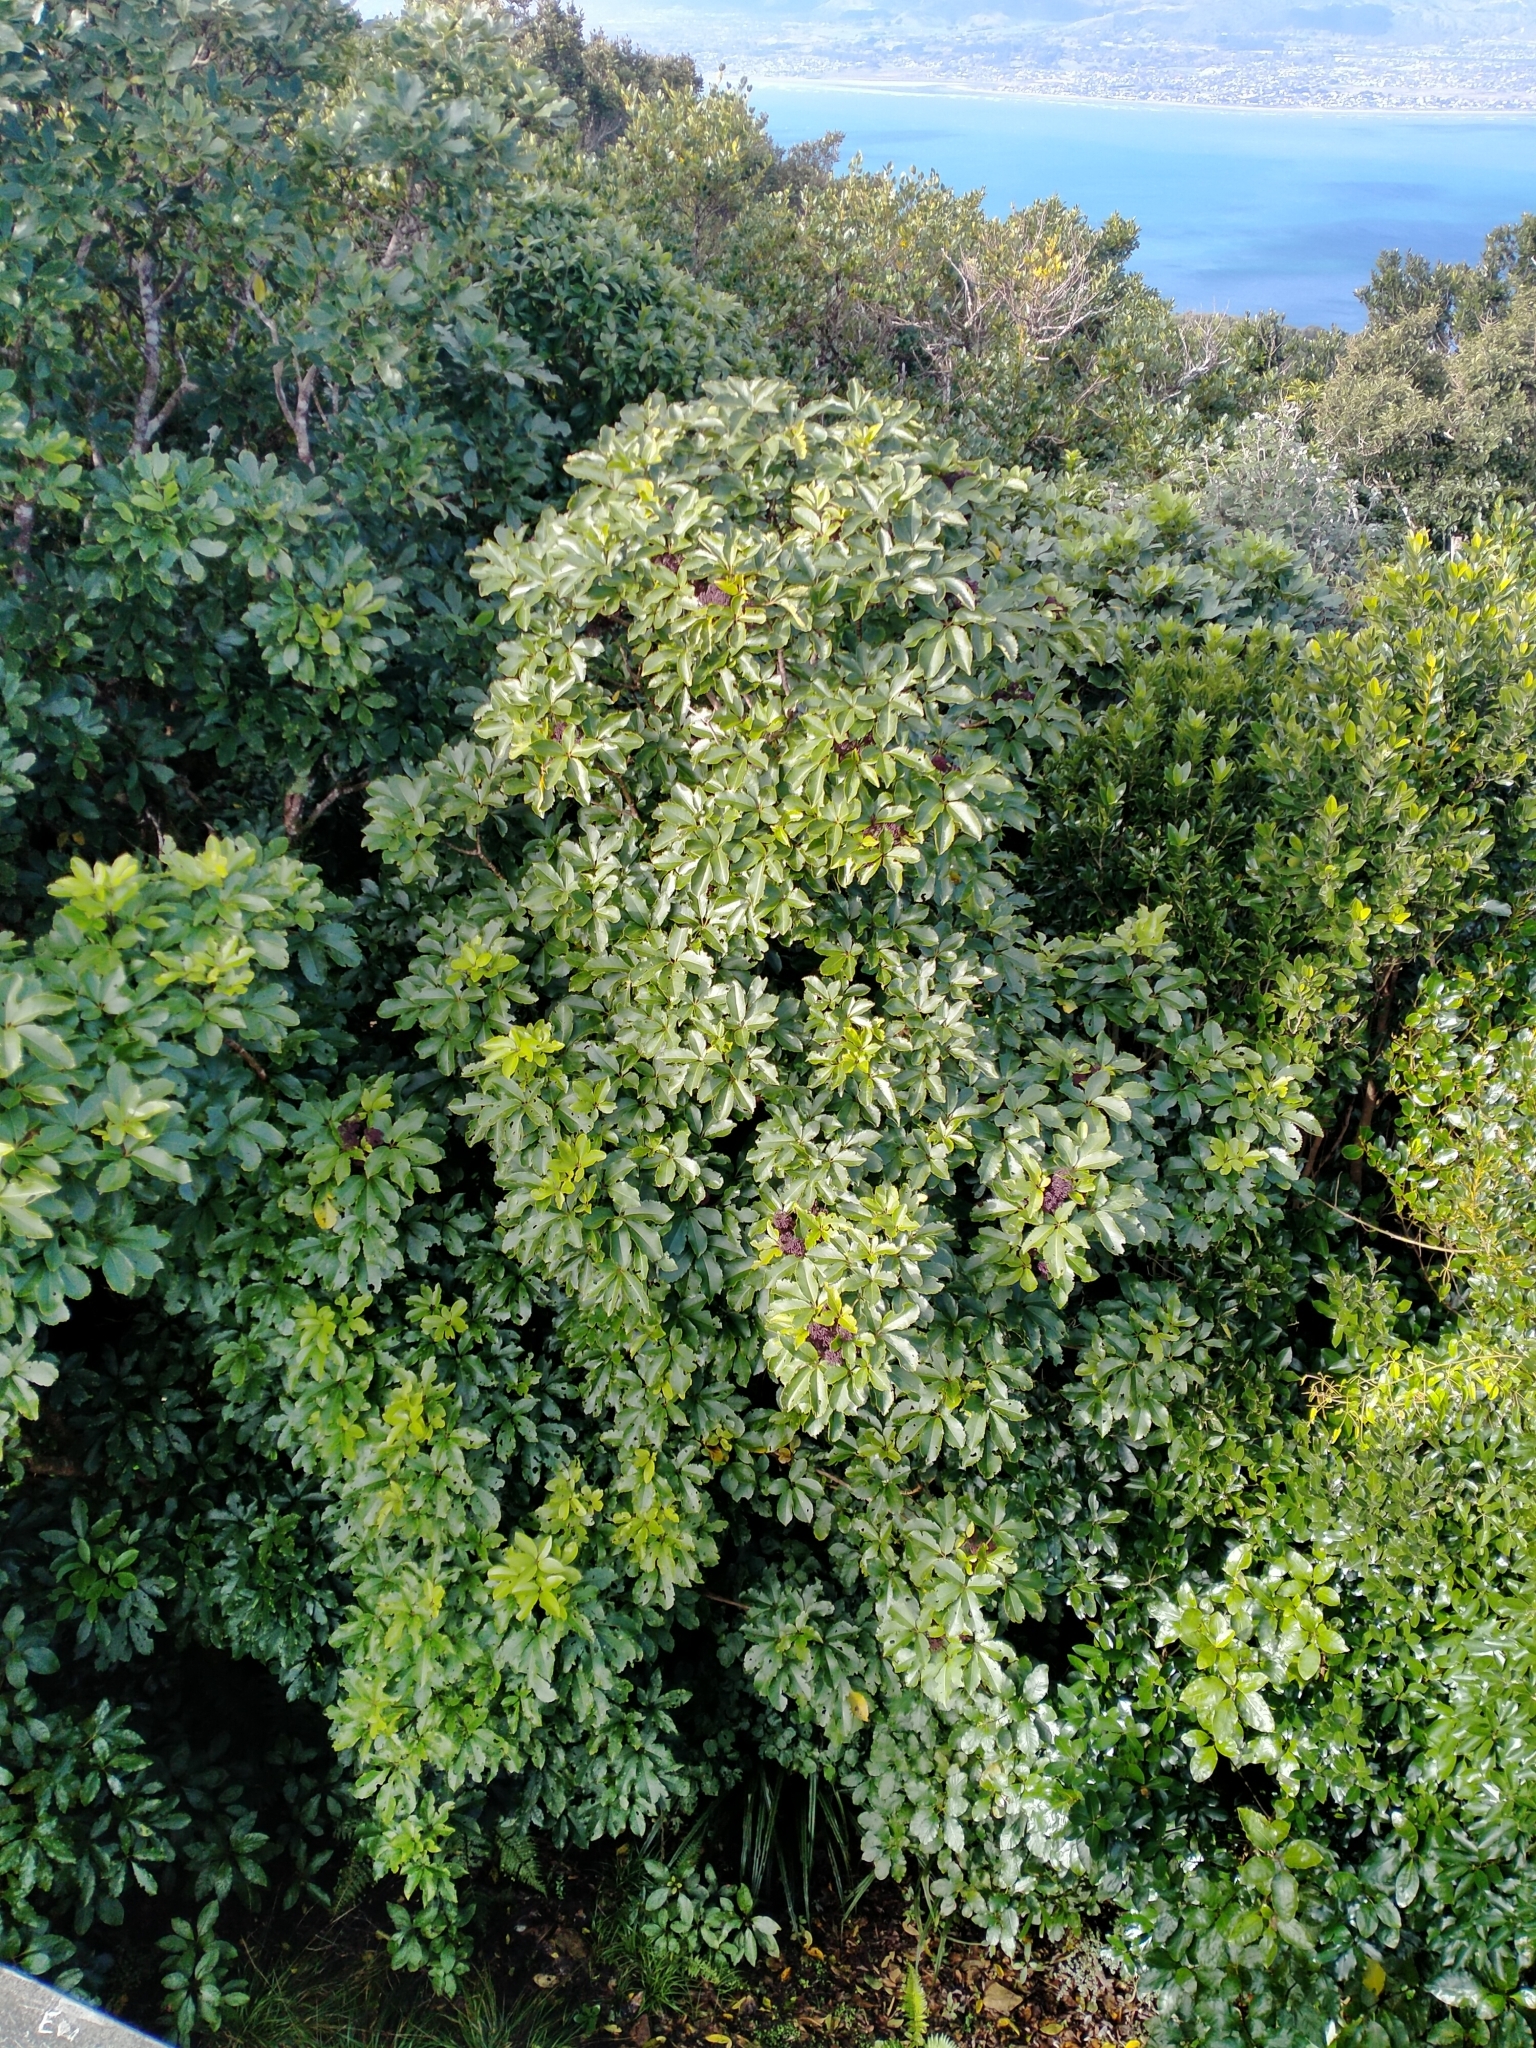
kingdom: Plantae
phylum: Tracheophyta
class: Magnoliopsida
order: Apiales
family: Araliaceae
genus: Neopanax
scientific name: Neopanax arboreus
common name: Five-fingers
